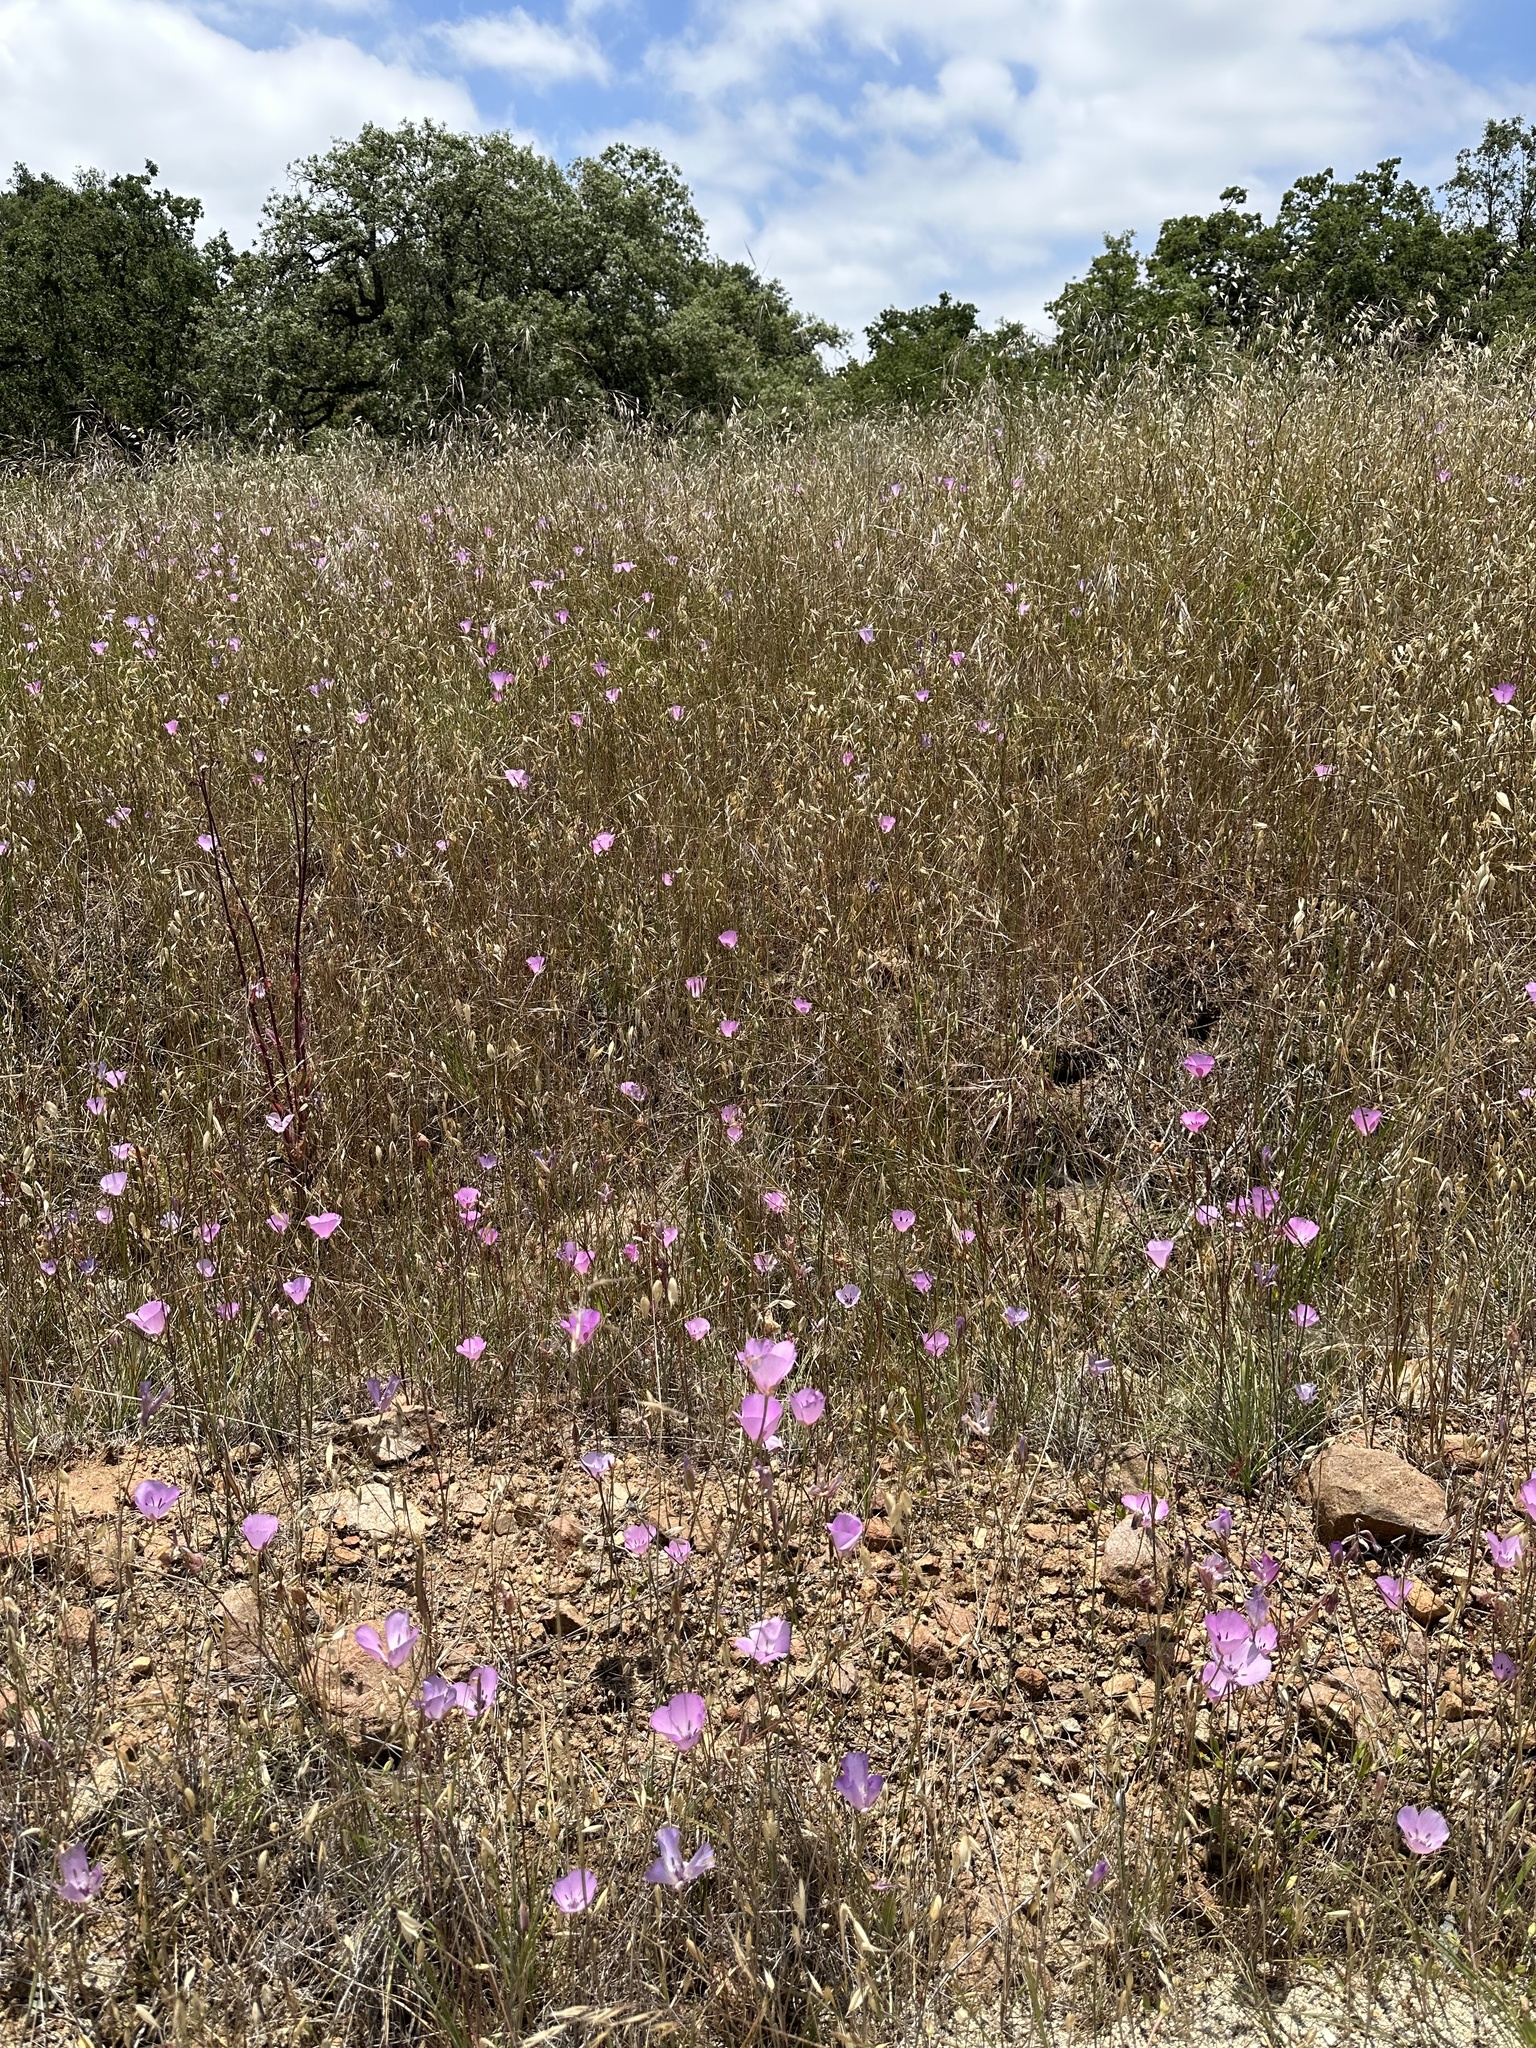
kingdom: Plantae
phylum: Tracheophyta
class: Liliopsida
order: Liliales
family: Liliaceae
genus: Calochortus
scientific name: Calochortus splendens
